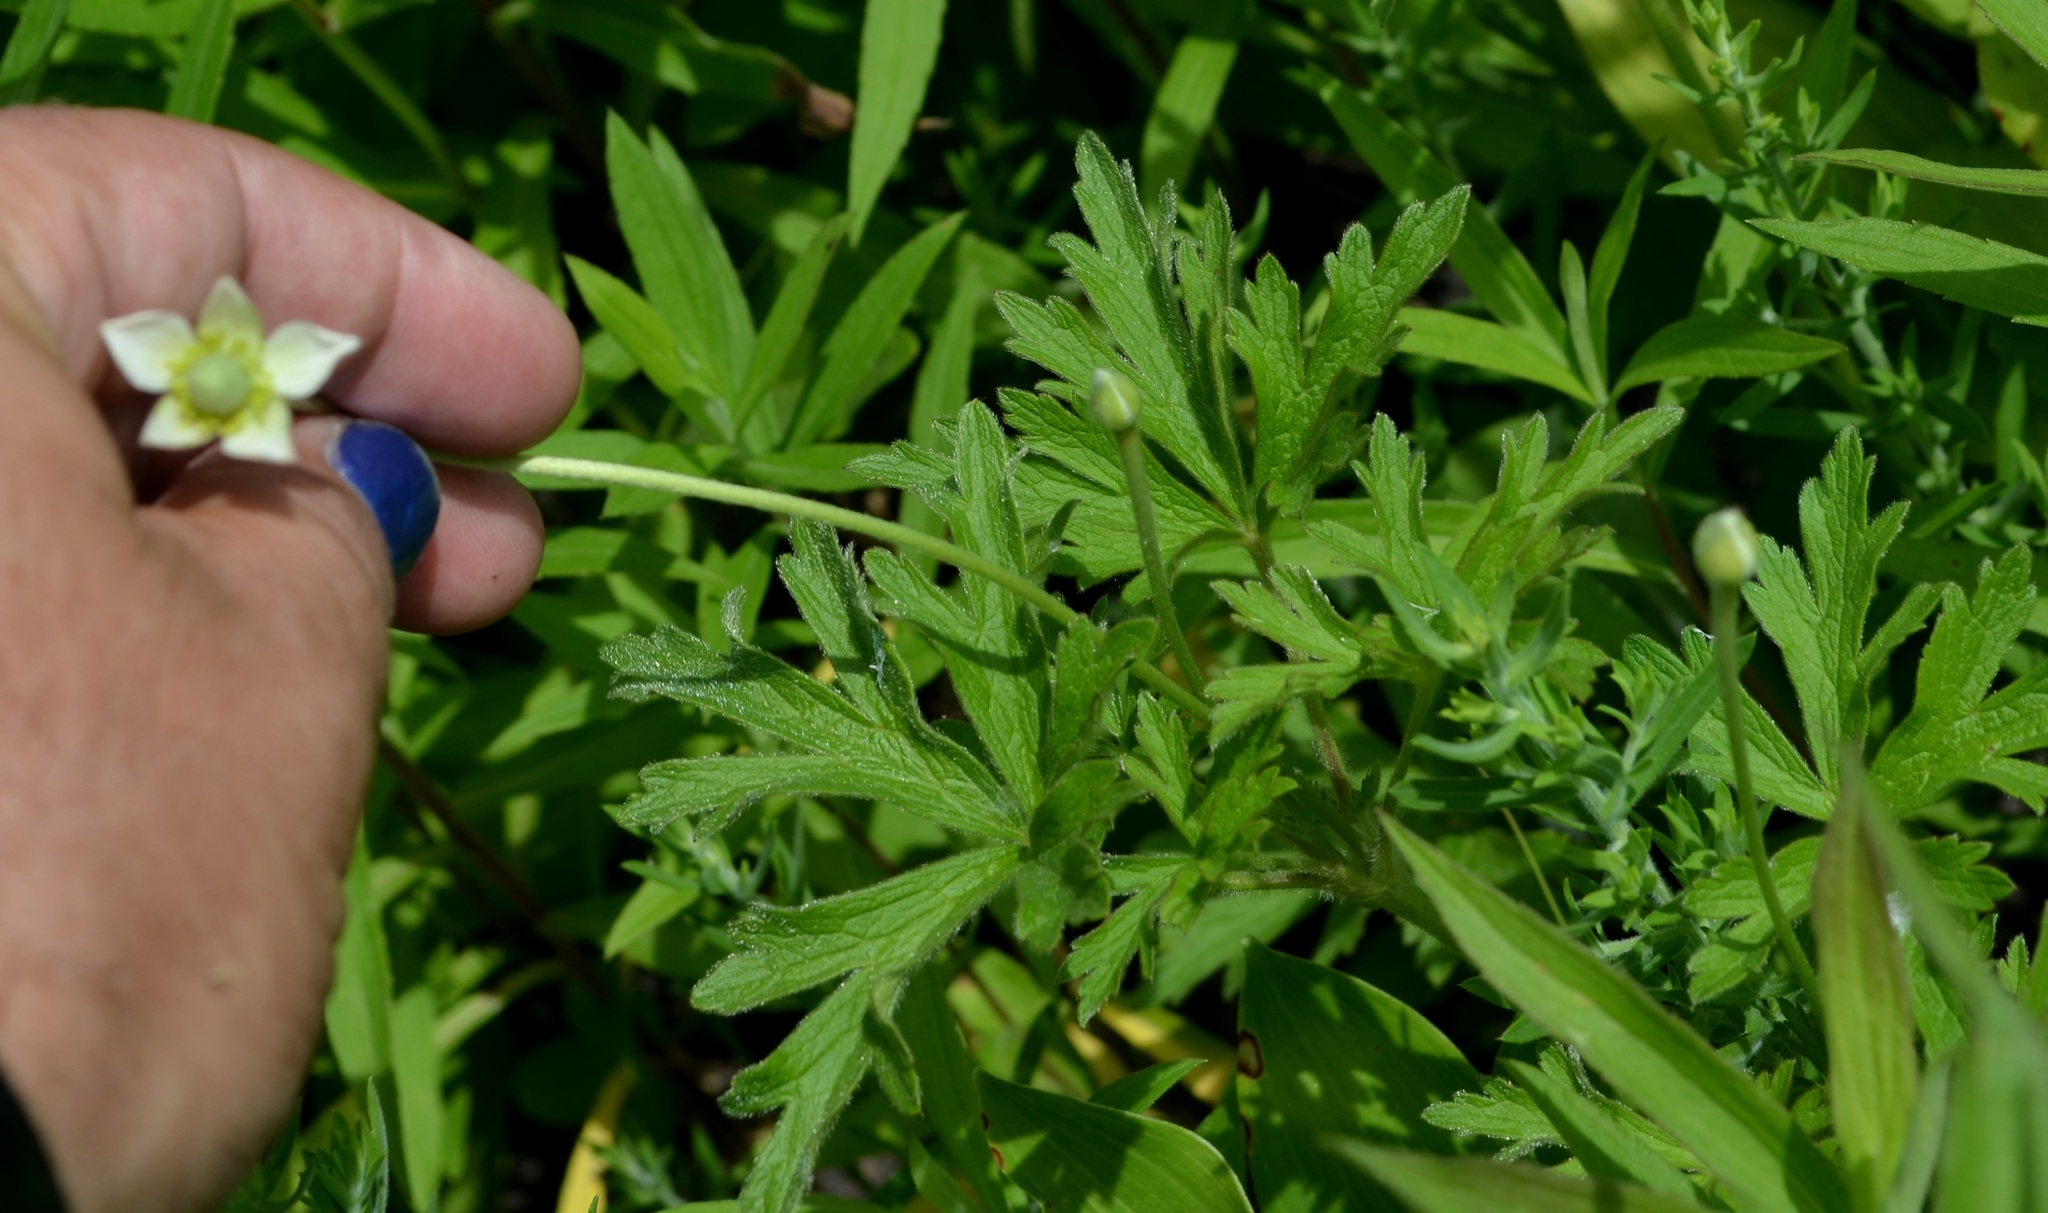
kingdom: Plantae
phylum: Tracheophyta
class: Magnoliopsida
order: Ranunculales
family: Ranunculaceae
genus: Anemone
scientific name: Anemone cylindrica
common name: Candle anemone
